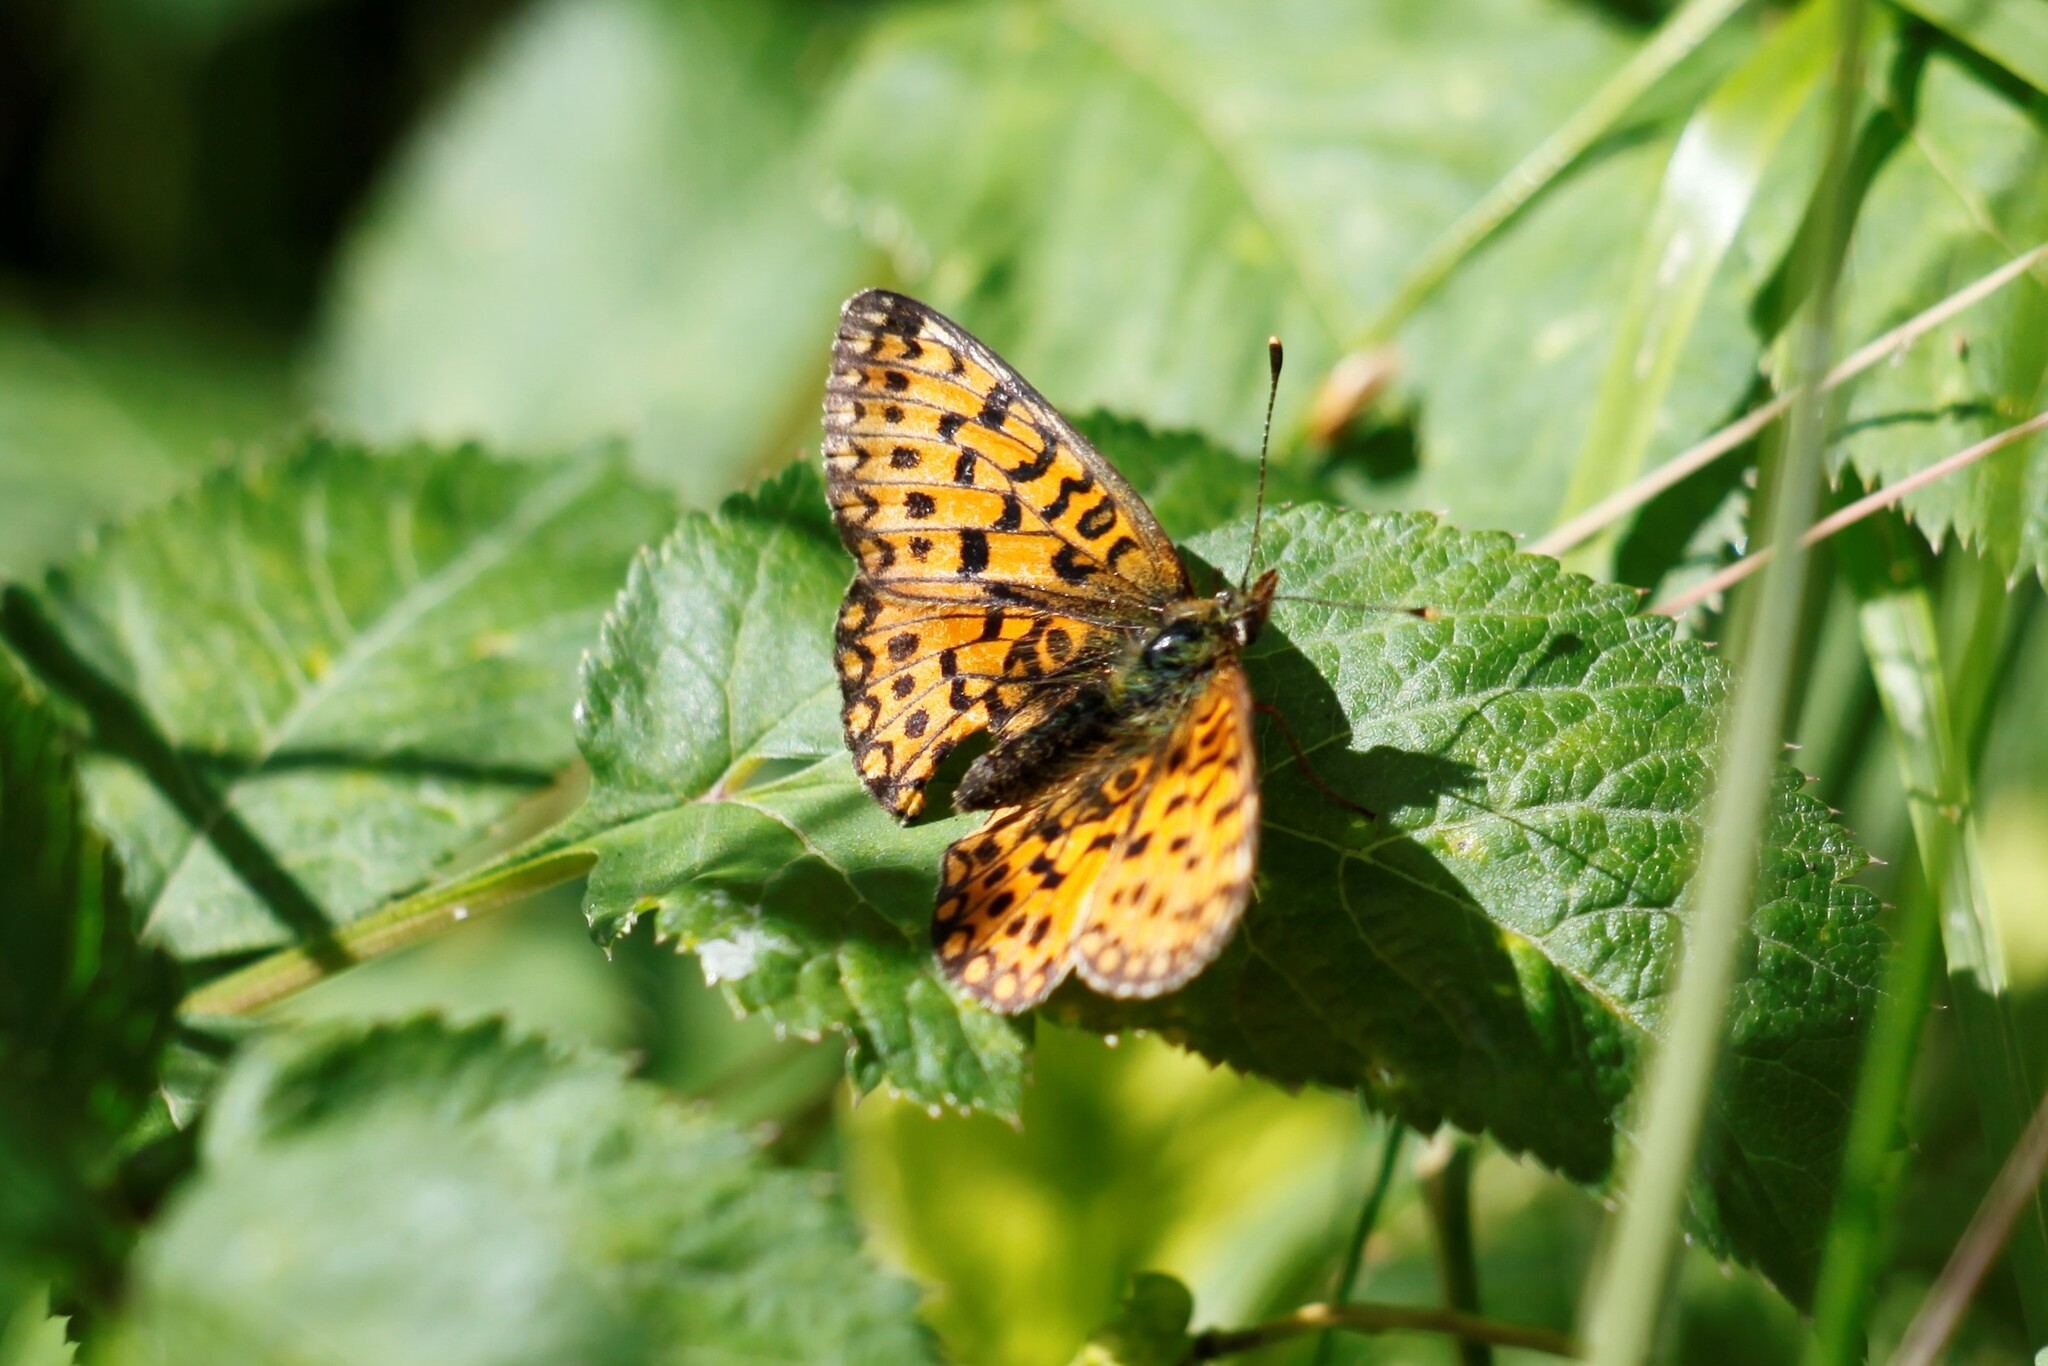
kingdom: Animalia
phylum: Arthropoda
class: Insecta
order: Lepidoptera
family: Nymphalidae
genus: Boloria
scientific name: Boloria selene
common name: Small pearl-bordered fritillary
